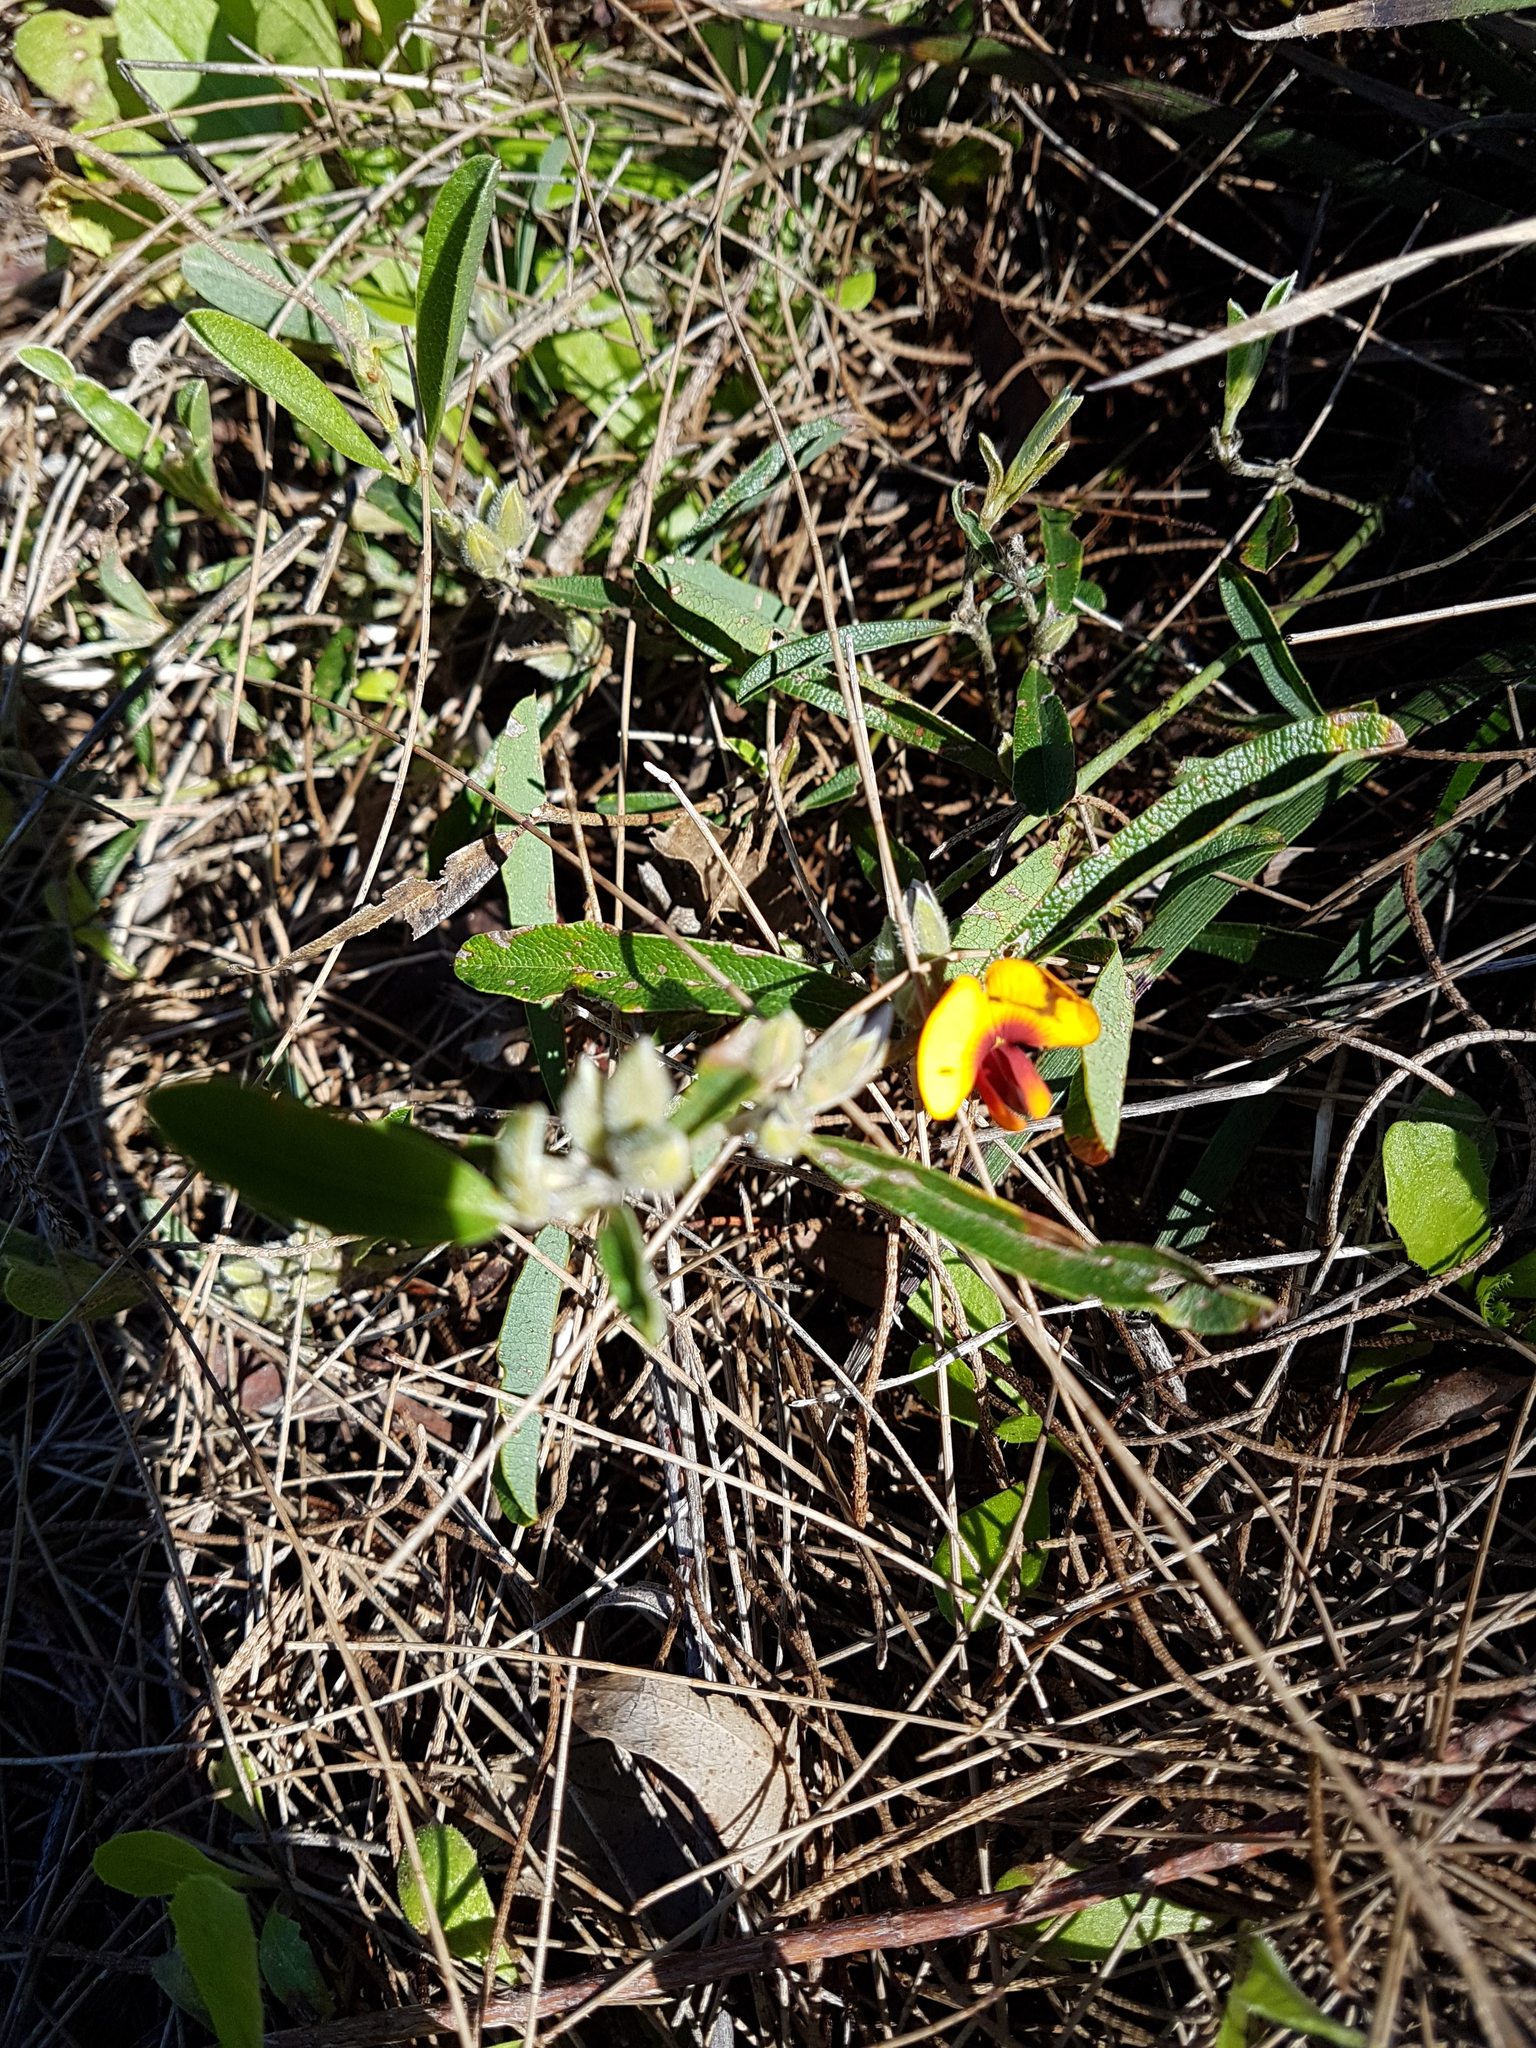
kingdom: Plantae
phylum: Tracheophyta
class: Magnoliopsida
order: Fabales
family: Fabaceae
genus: Gastrolobium
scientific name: Gastrolobium capitatum
